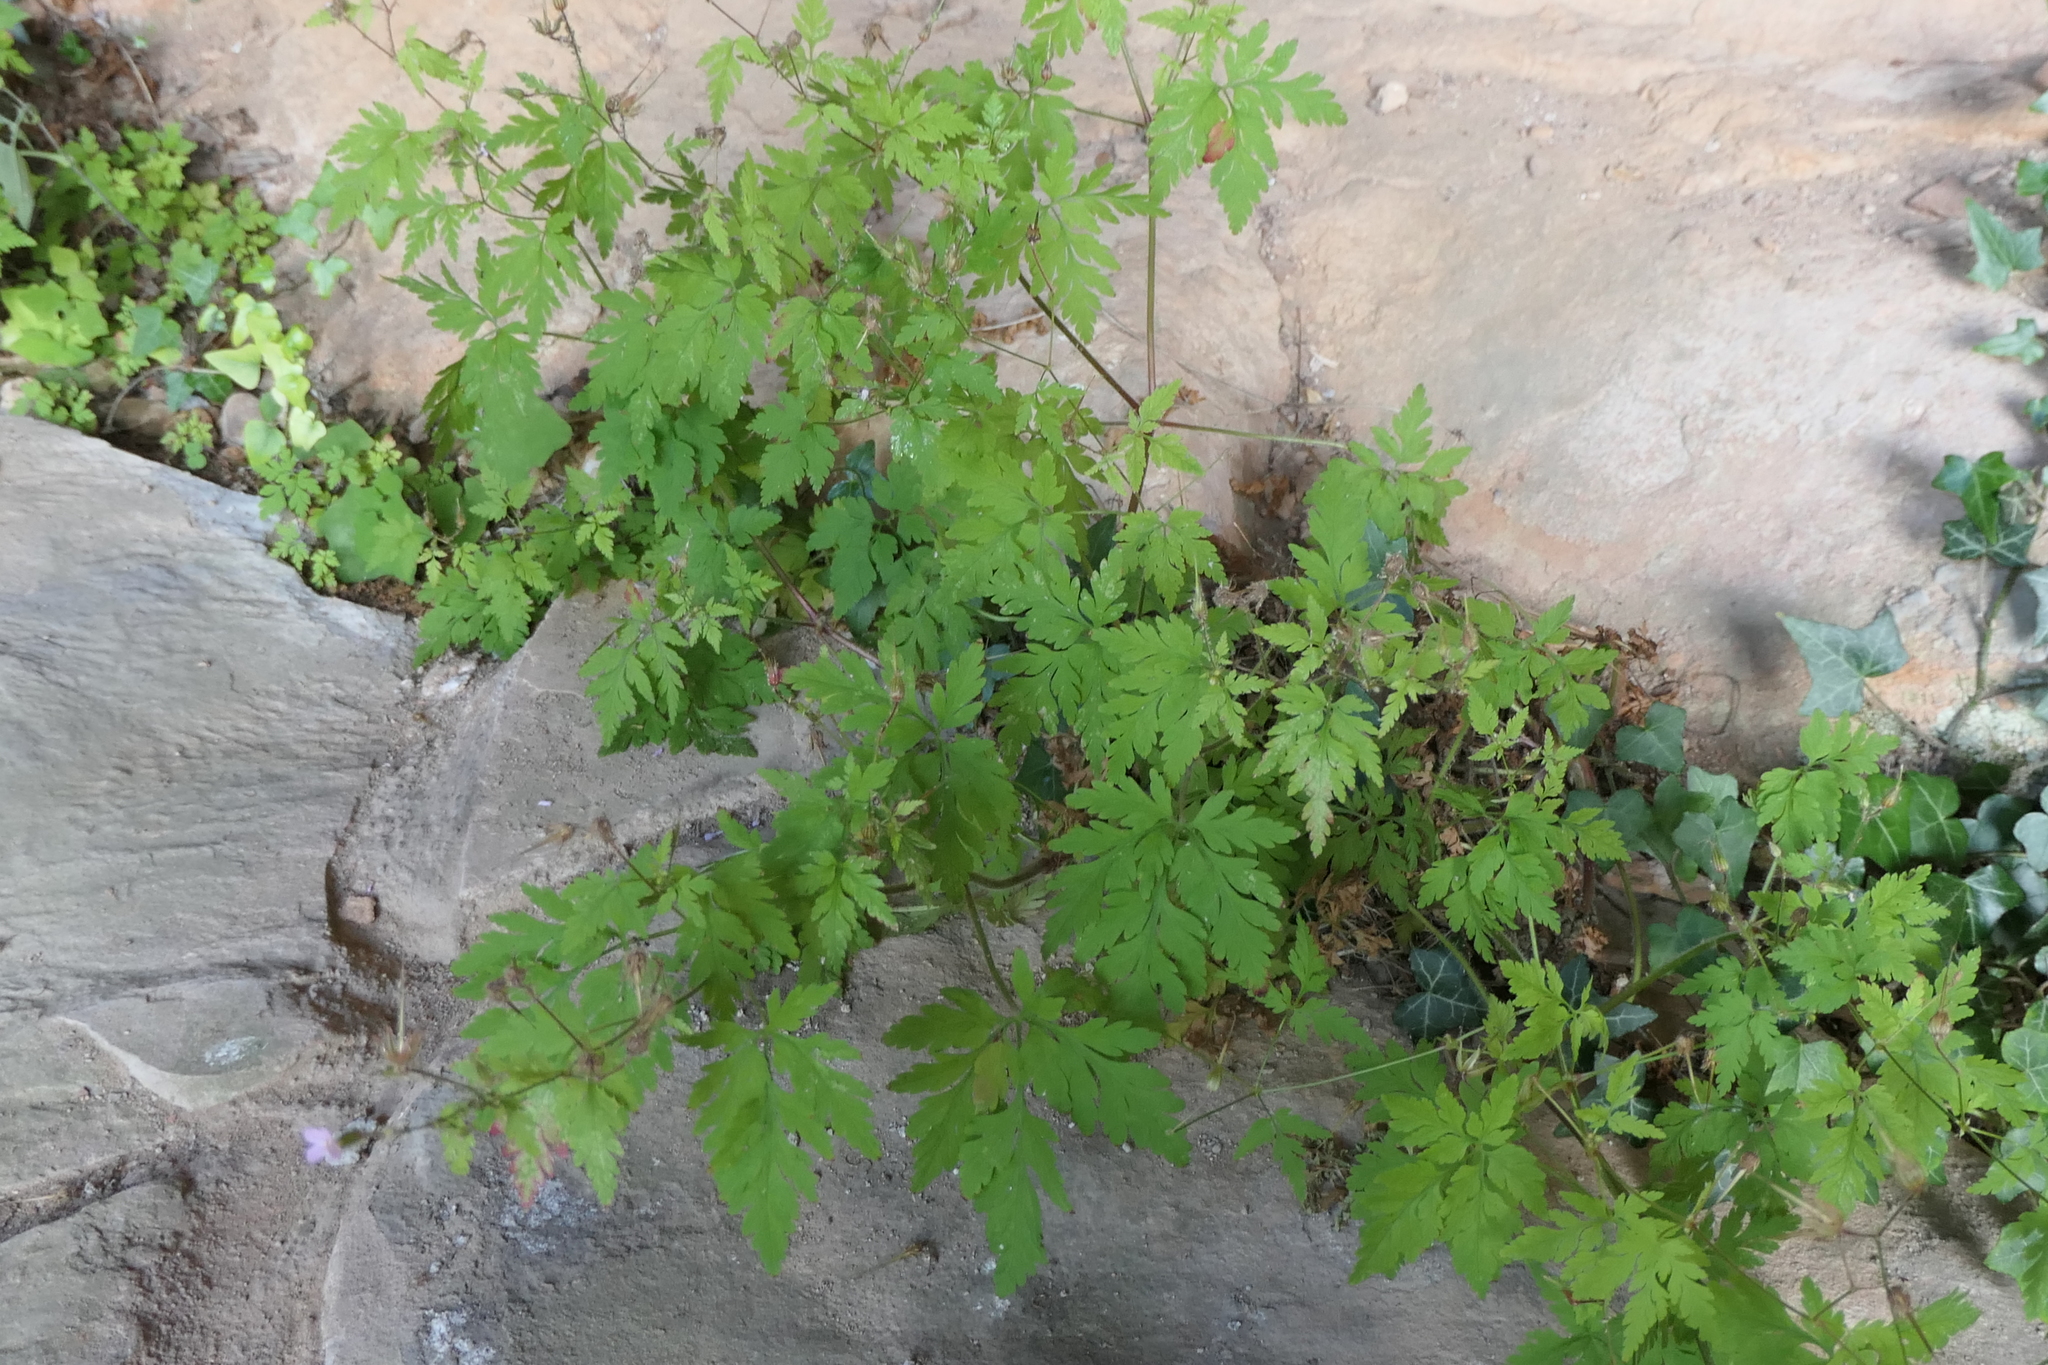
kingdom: Plantae
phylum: Tracheophyta
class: Magnoliopsida
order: Geraniales
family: Geraniaceae
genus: Geranium
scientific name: Geranium robertianum
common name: Herb-robert
